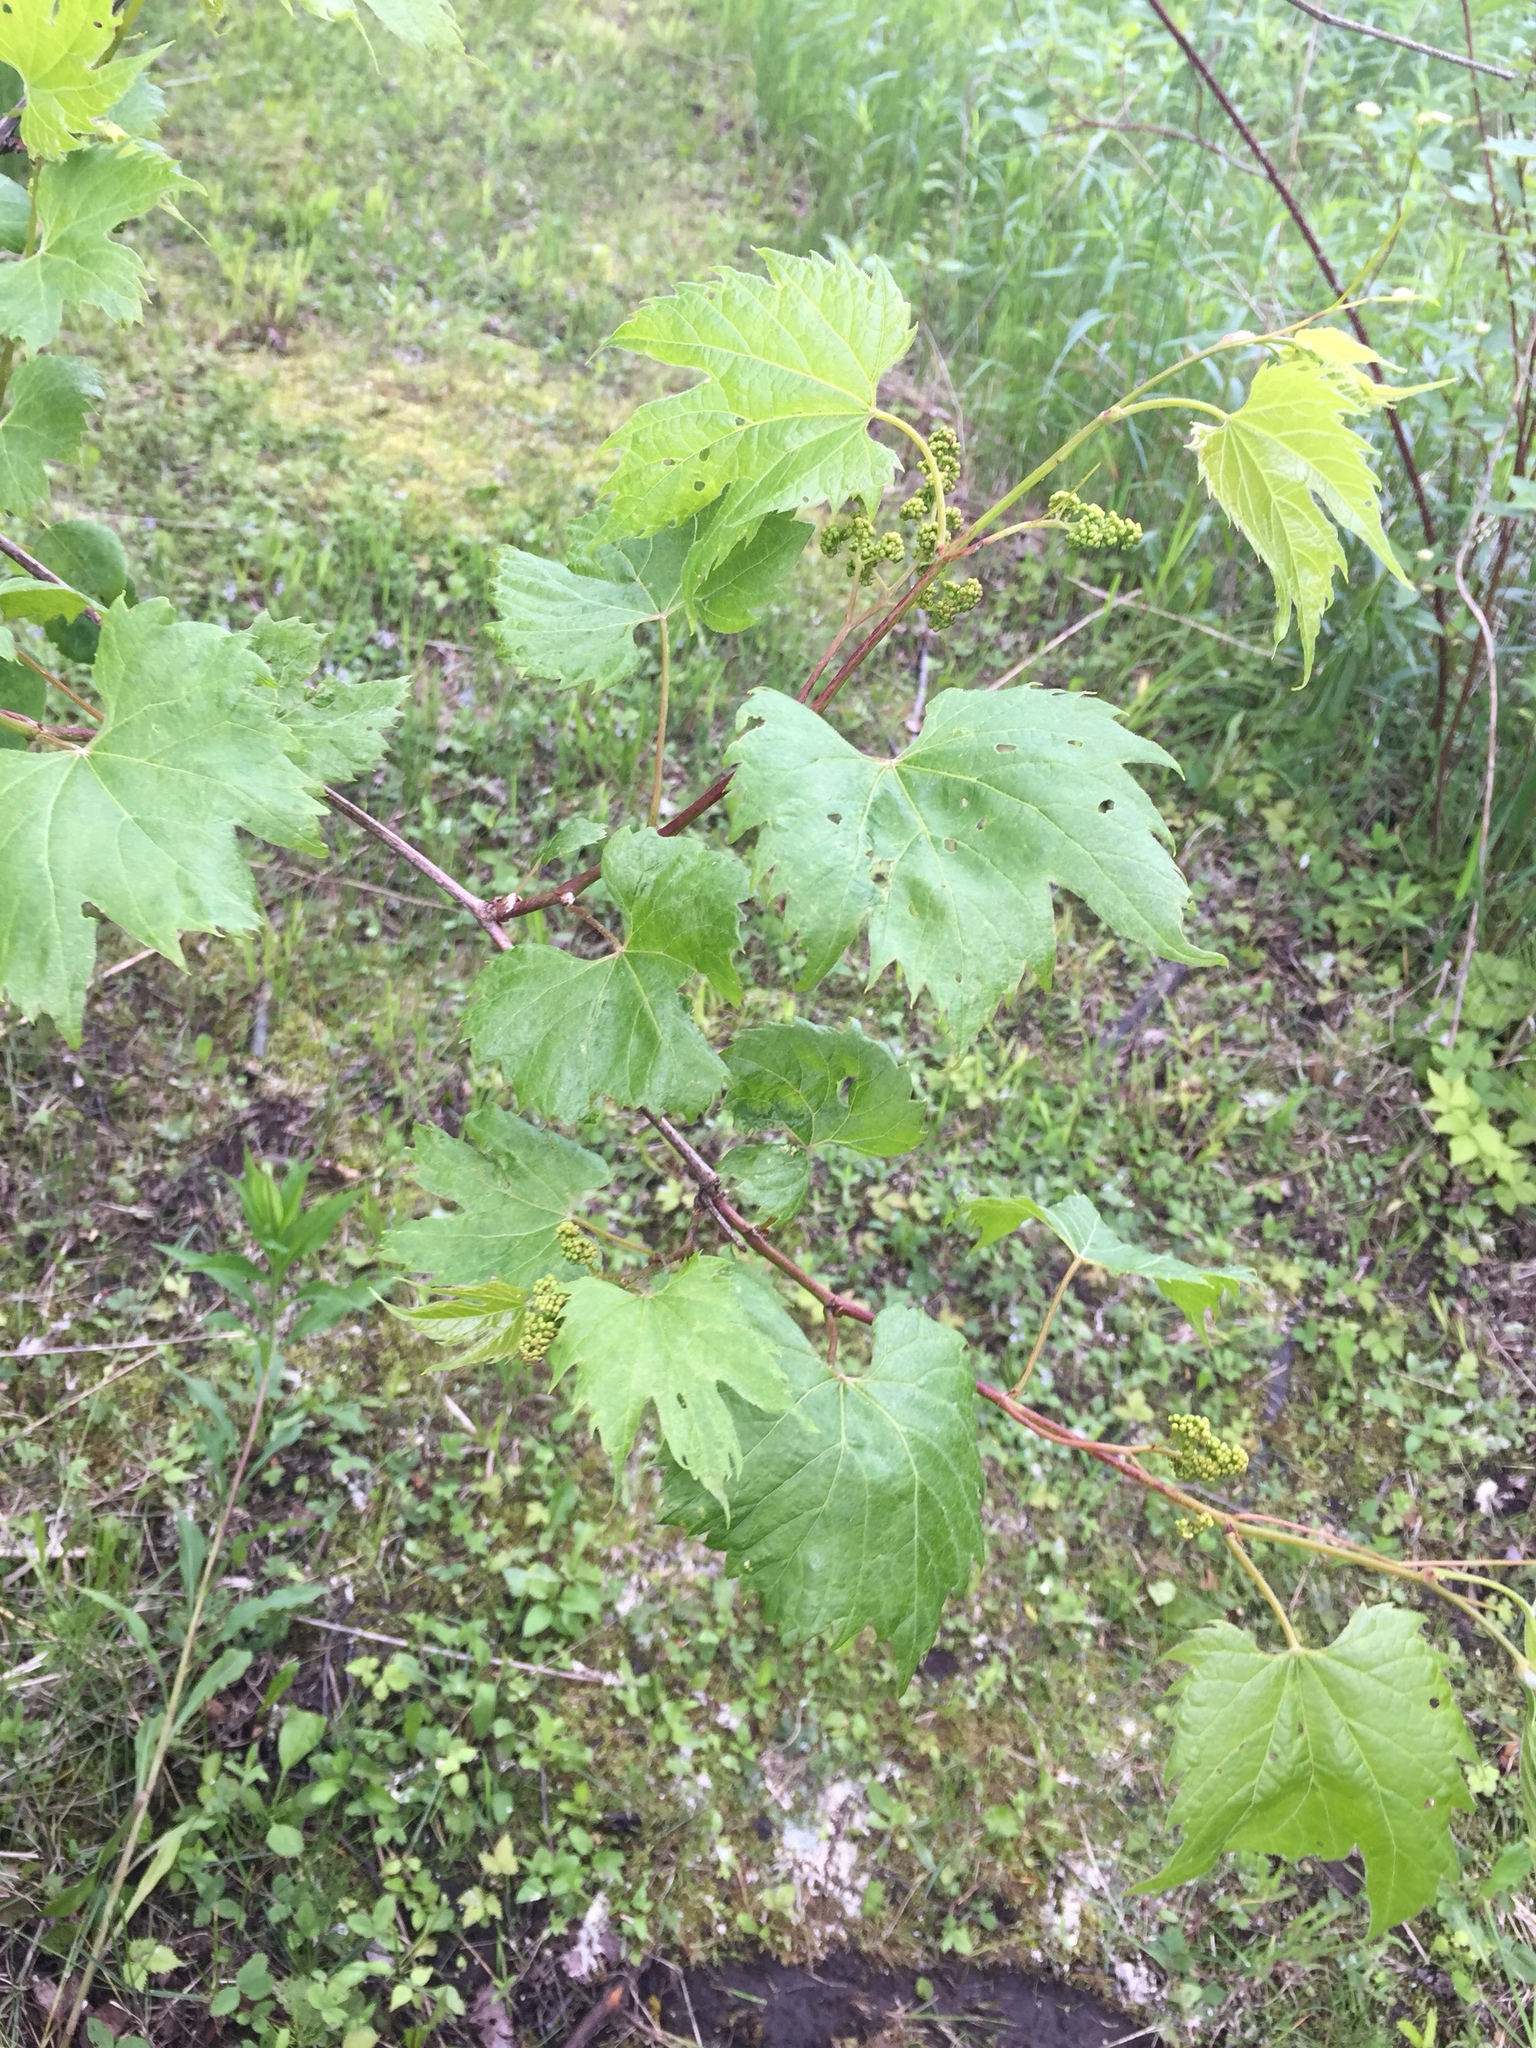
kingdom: Plantae
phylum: Tracheophyta
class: Magnoliopsida
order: Vitales
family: Vitaceae
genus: Vitis
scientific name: Vitis riparia
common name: Frost grape
